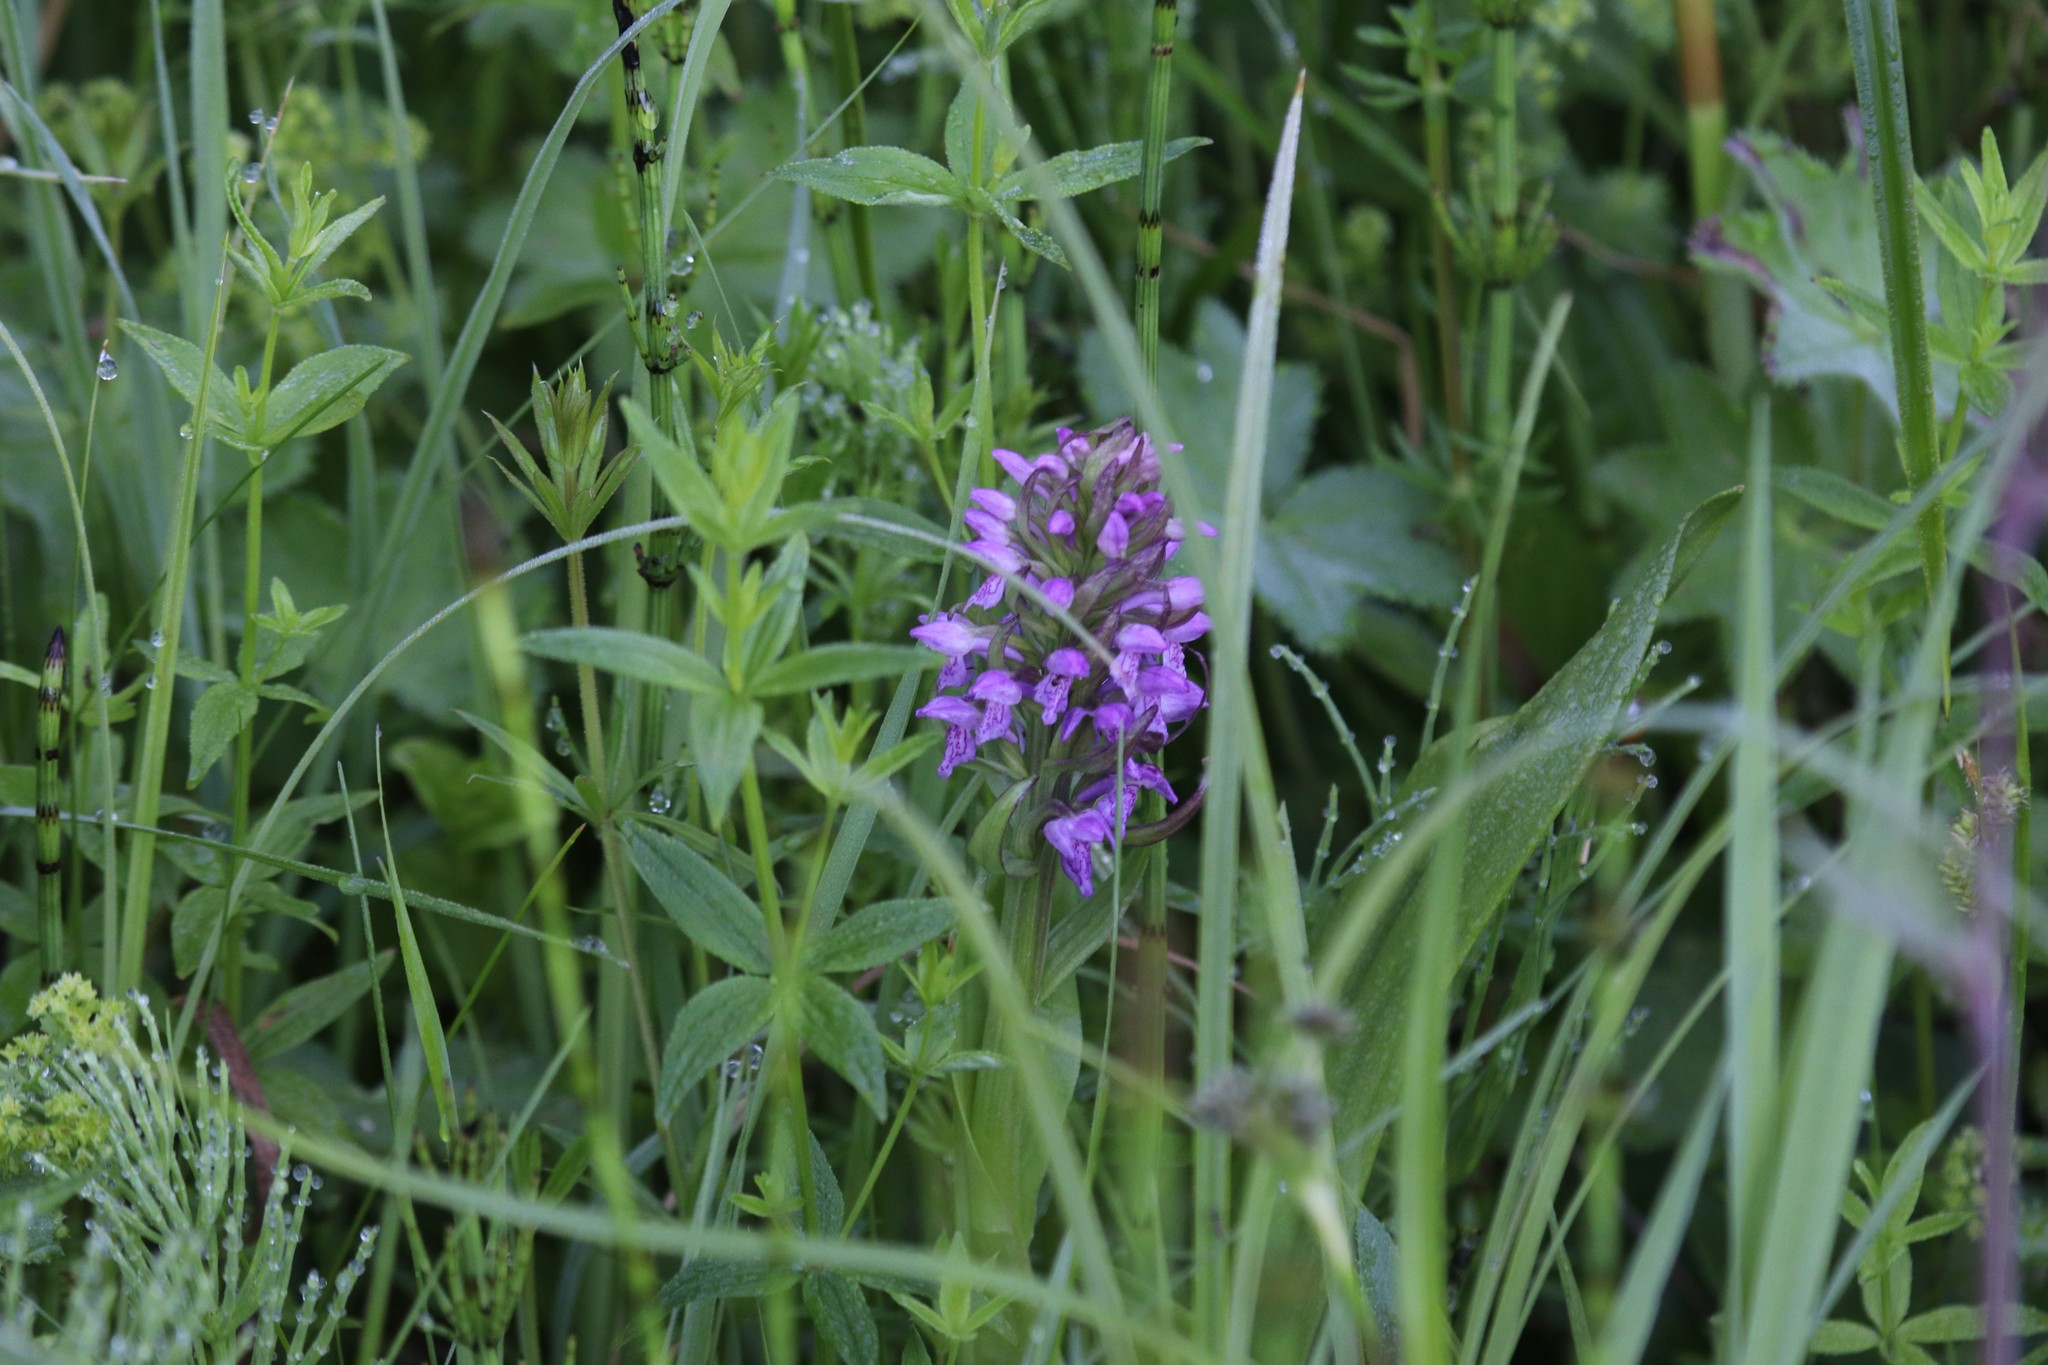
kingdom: Plantae
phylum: Tracheophyta
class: Liliopsida
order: Asparagales
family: Orchidaceae
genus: Dactylorhiza
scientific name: Dactylorhiza incarnata
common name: Early marsh-orchid
